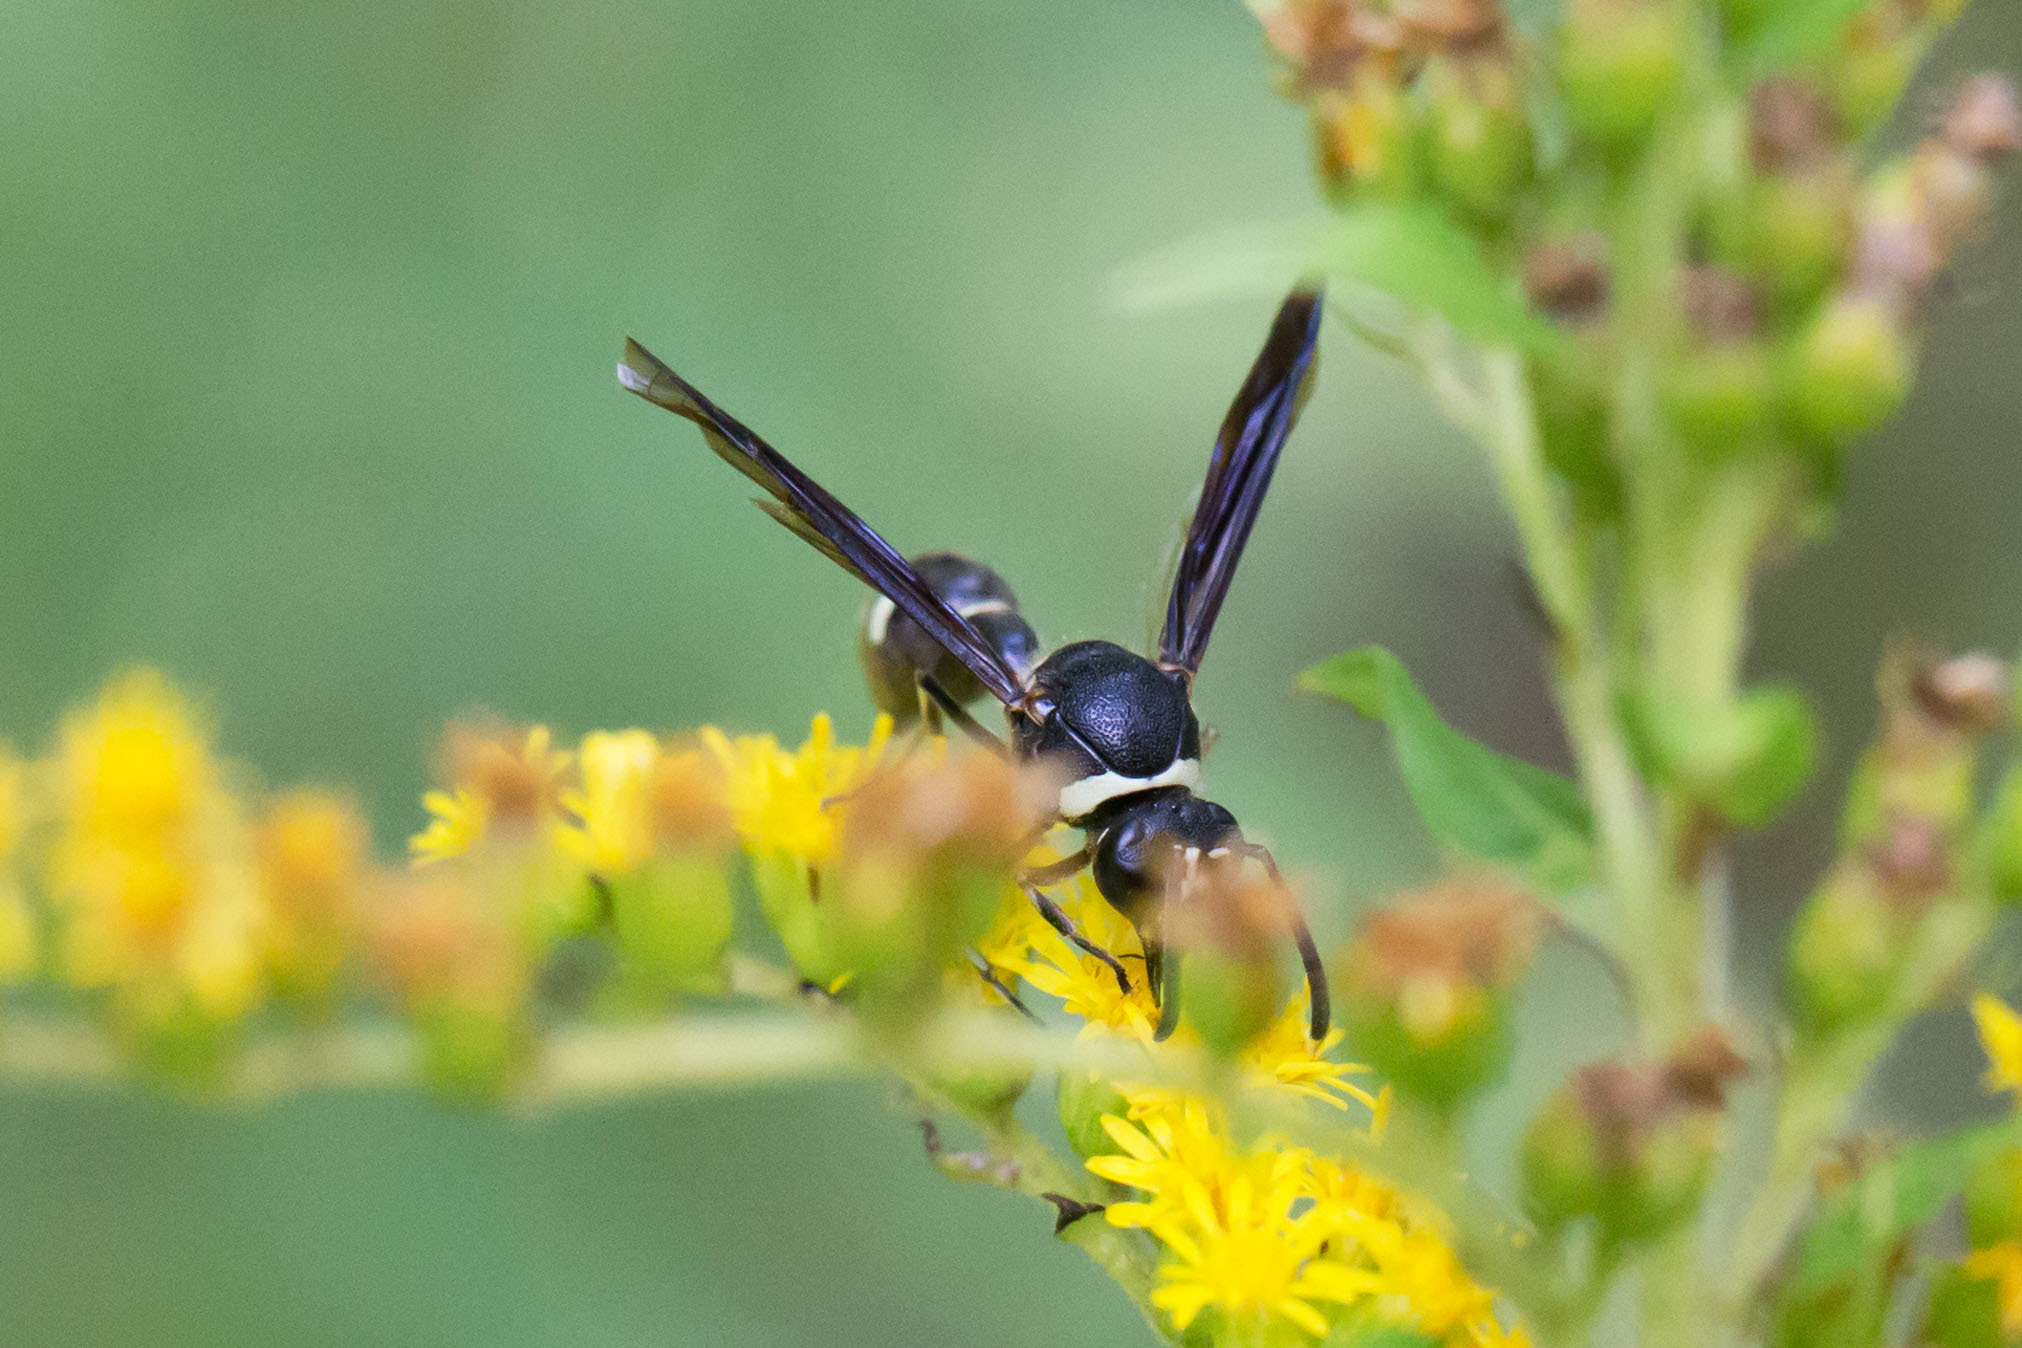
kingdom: Animalia
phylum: Arthropoda
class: Insecta
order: Hymenoptera
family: Vespidae
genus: Eumenes
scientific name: Eumenes fraternus
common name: Fraternal potter wasp
